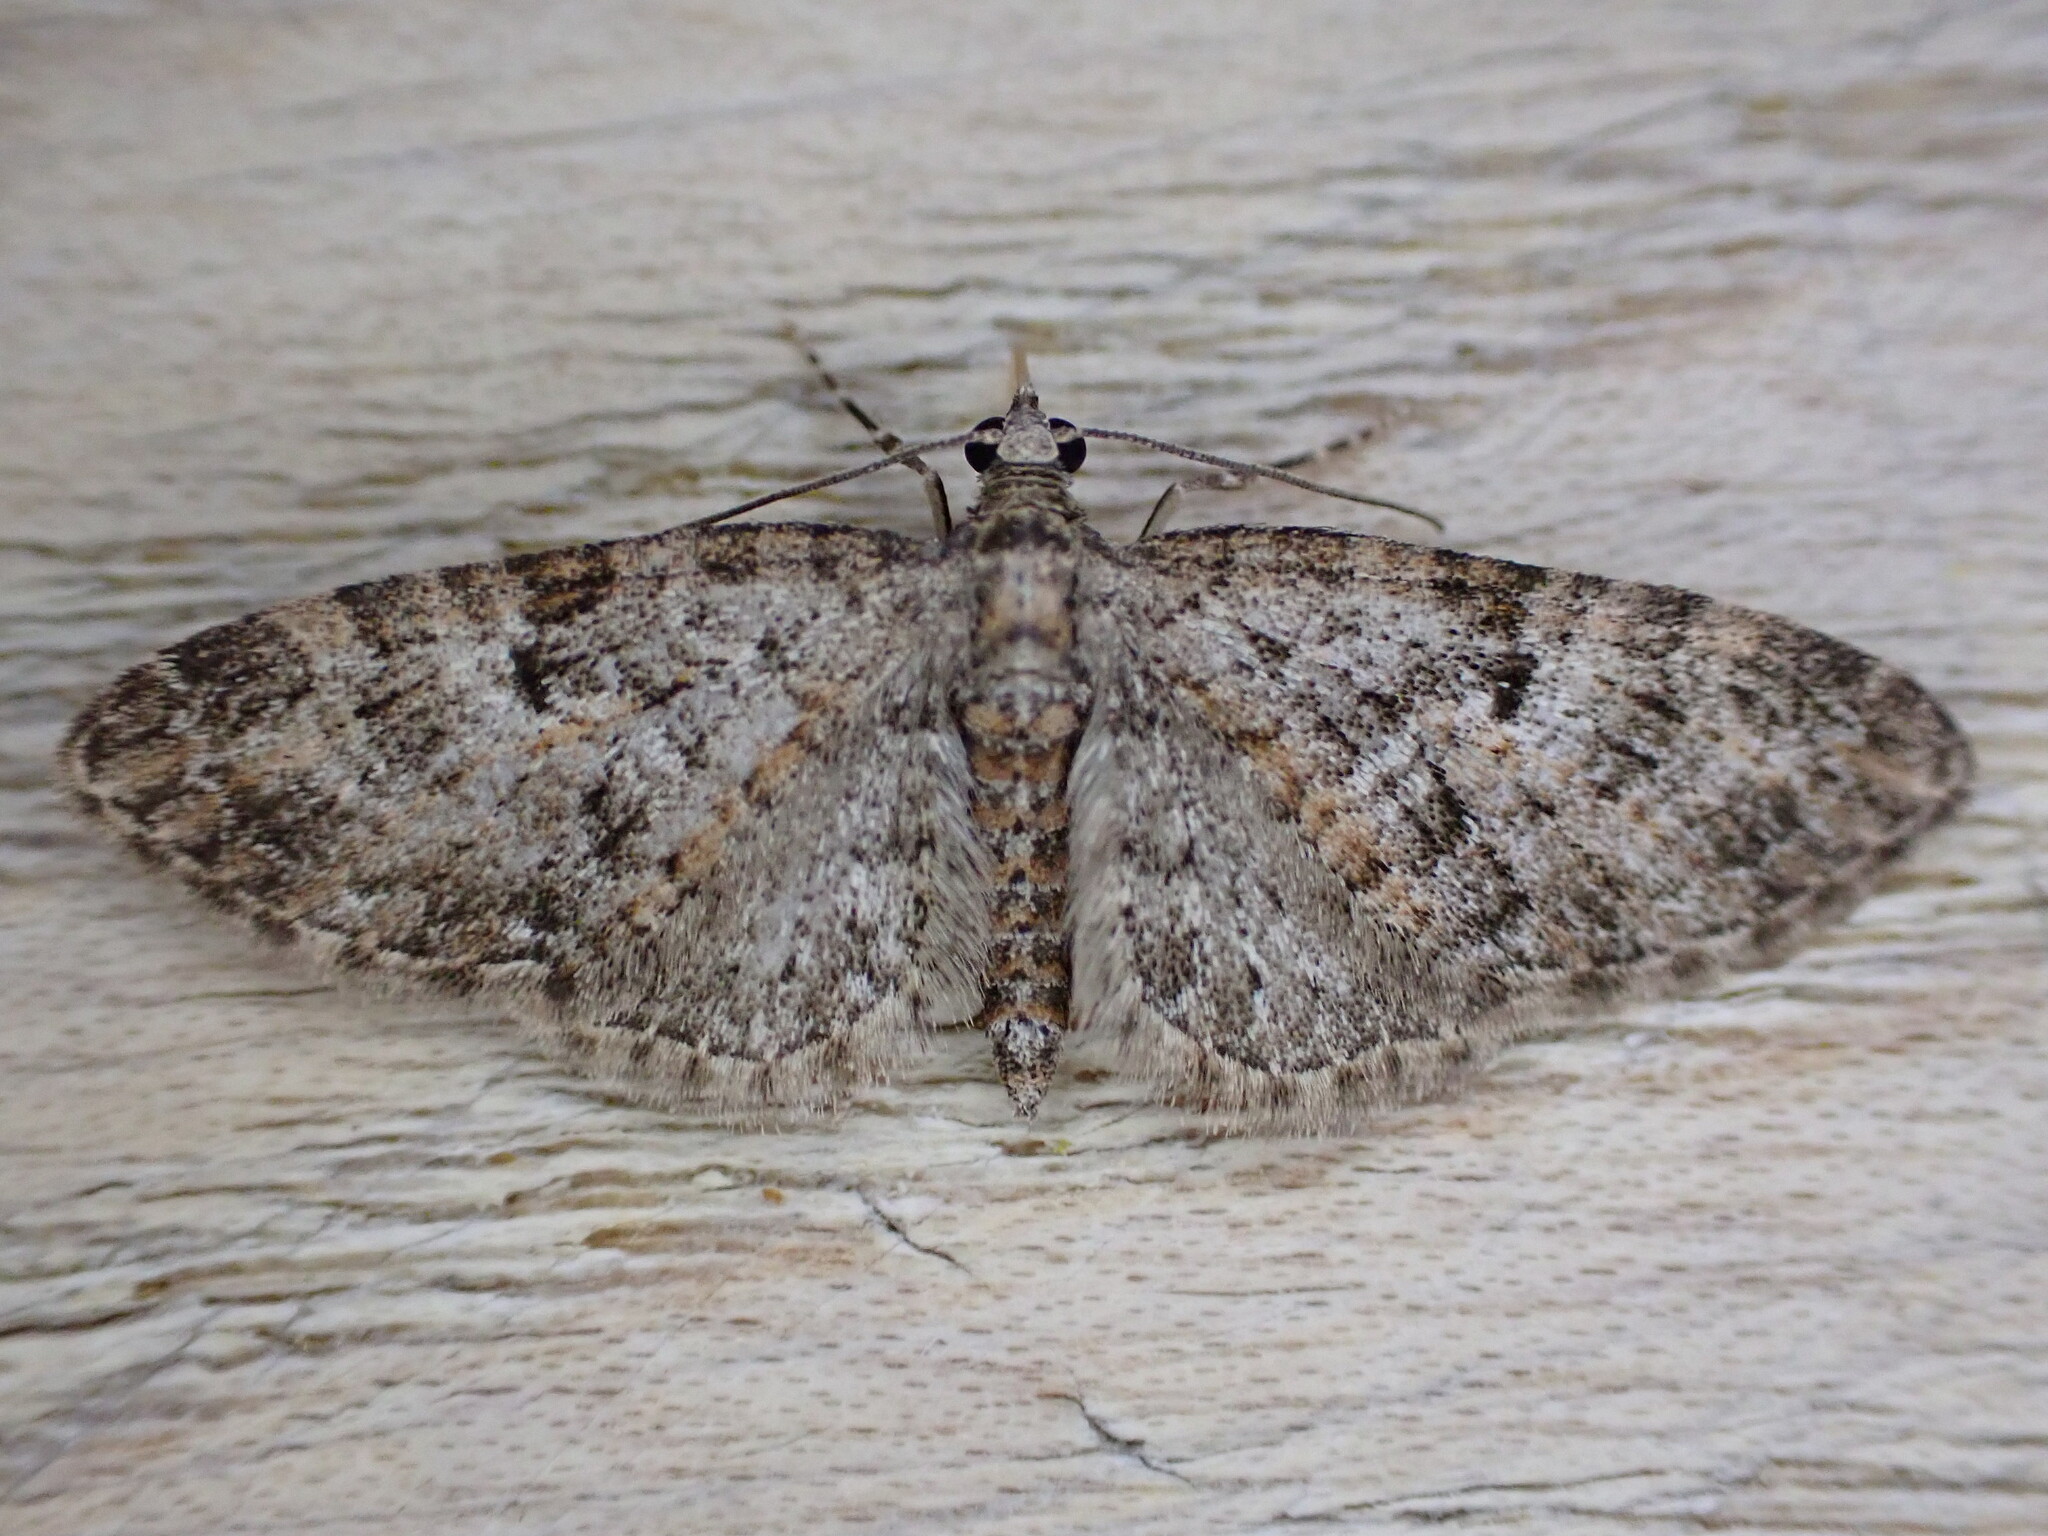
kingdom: Animalia
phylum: Arthropoda
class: Insecta
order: Lepidoptera
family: Geometridae
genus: Eupithecia
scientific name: Eupithecia dodoneata
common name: Oak-tree pug
